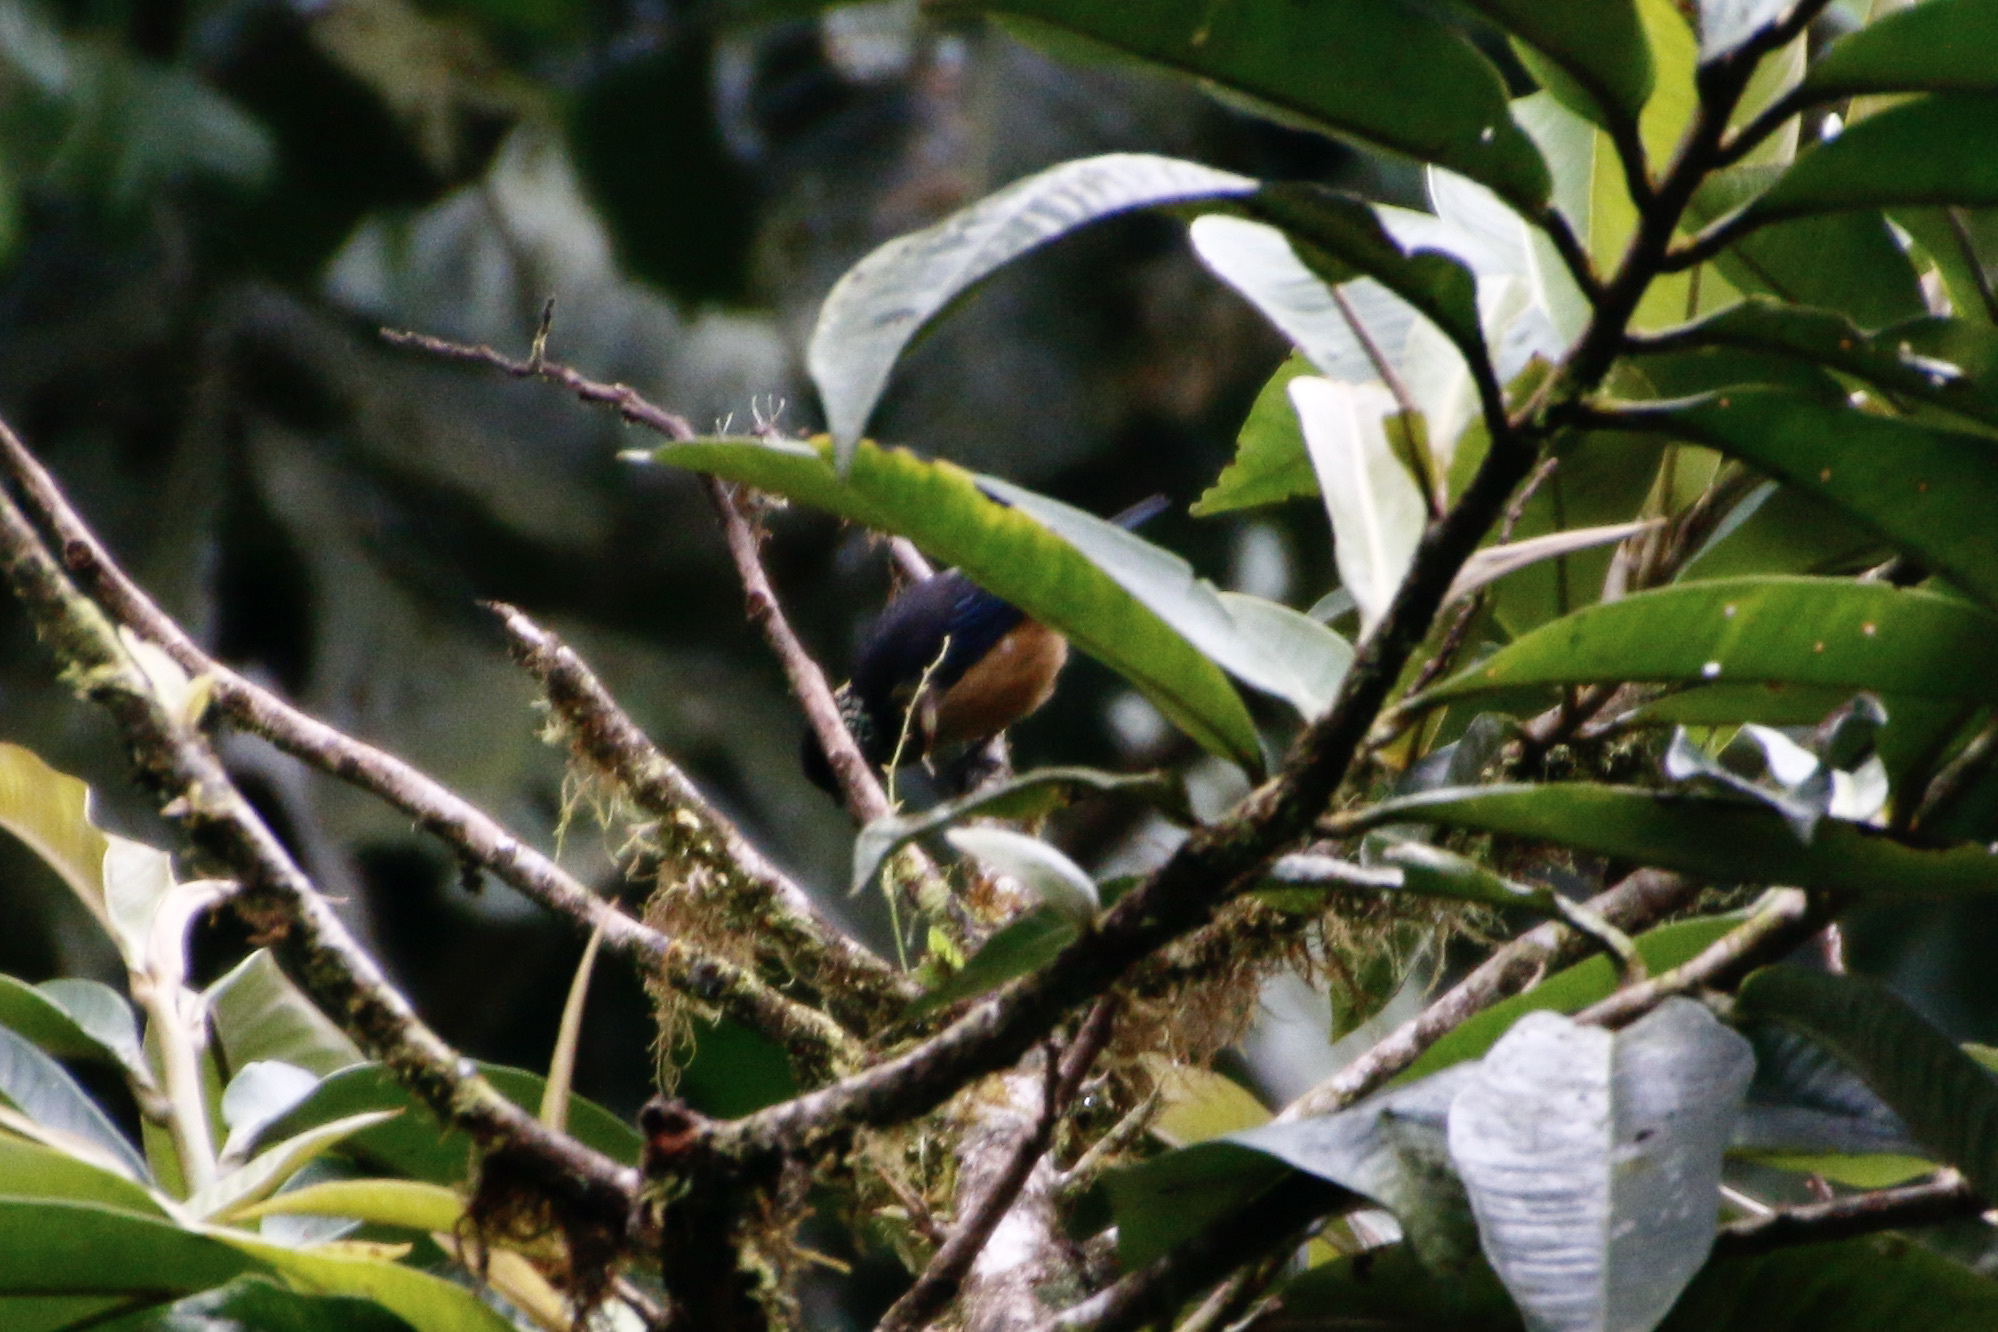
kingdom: Animalia
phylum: Chordata
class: Aves
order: Passeriformes
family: Thraupidae
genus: Tangara
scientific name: Tangara dowii
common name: Spangle-cheeked tanager
